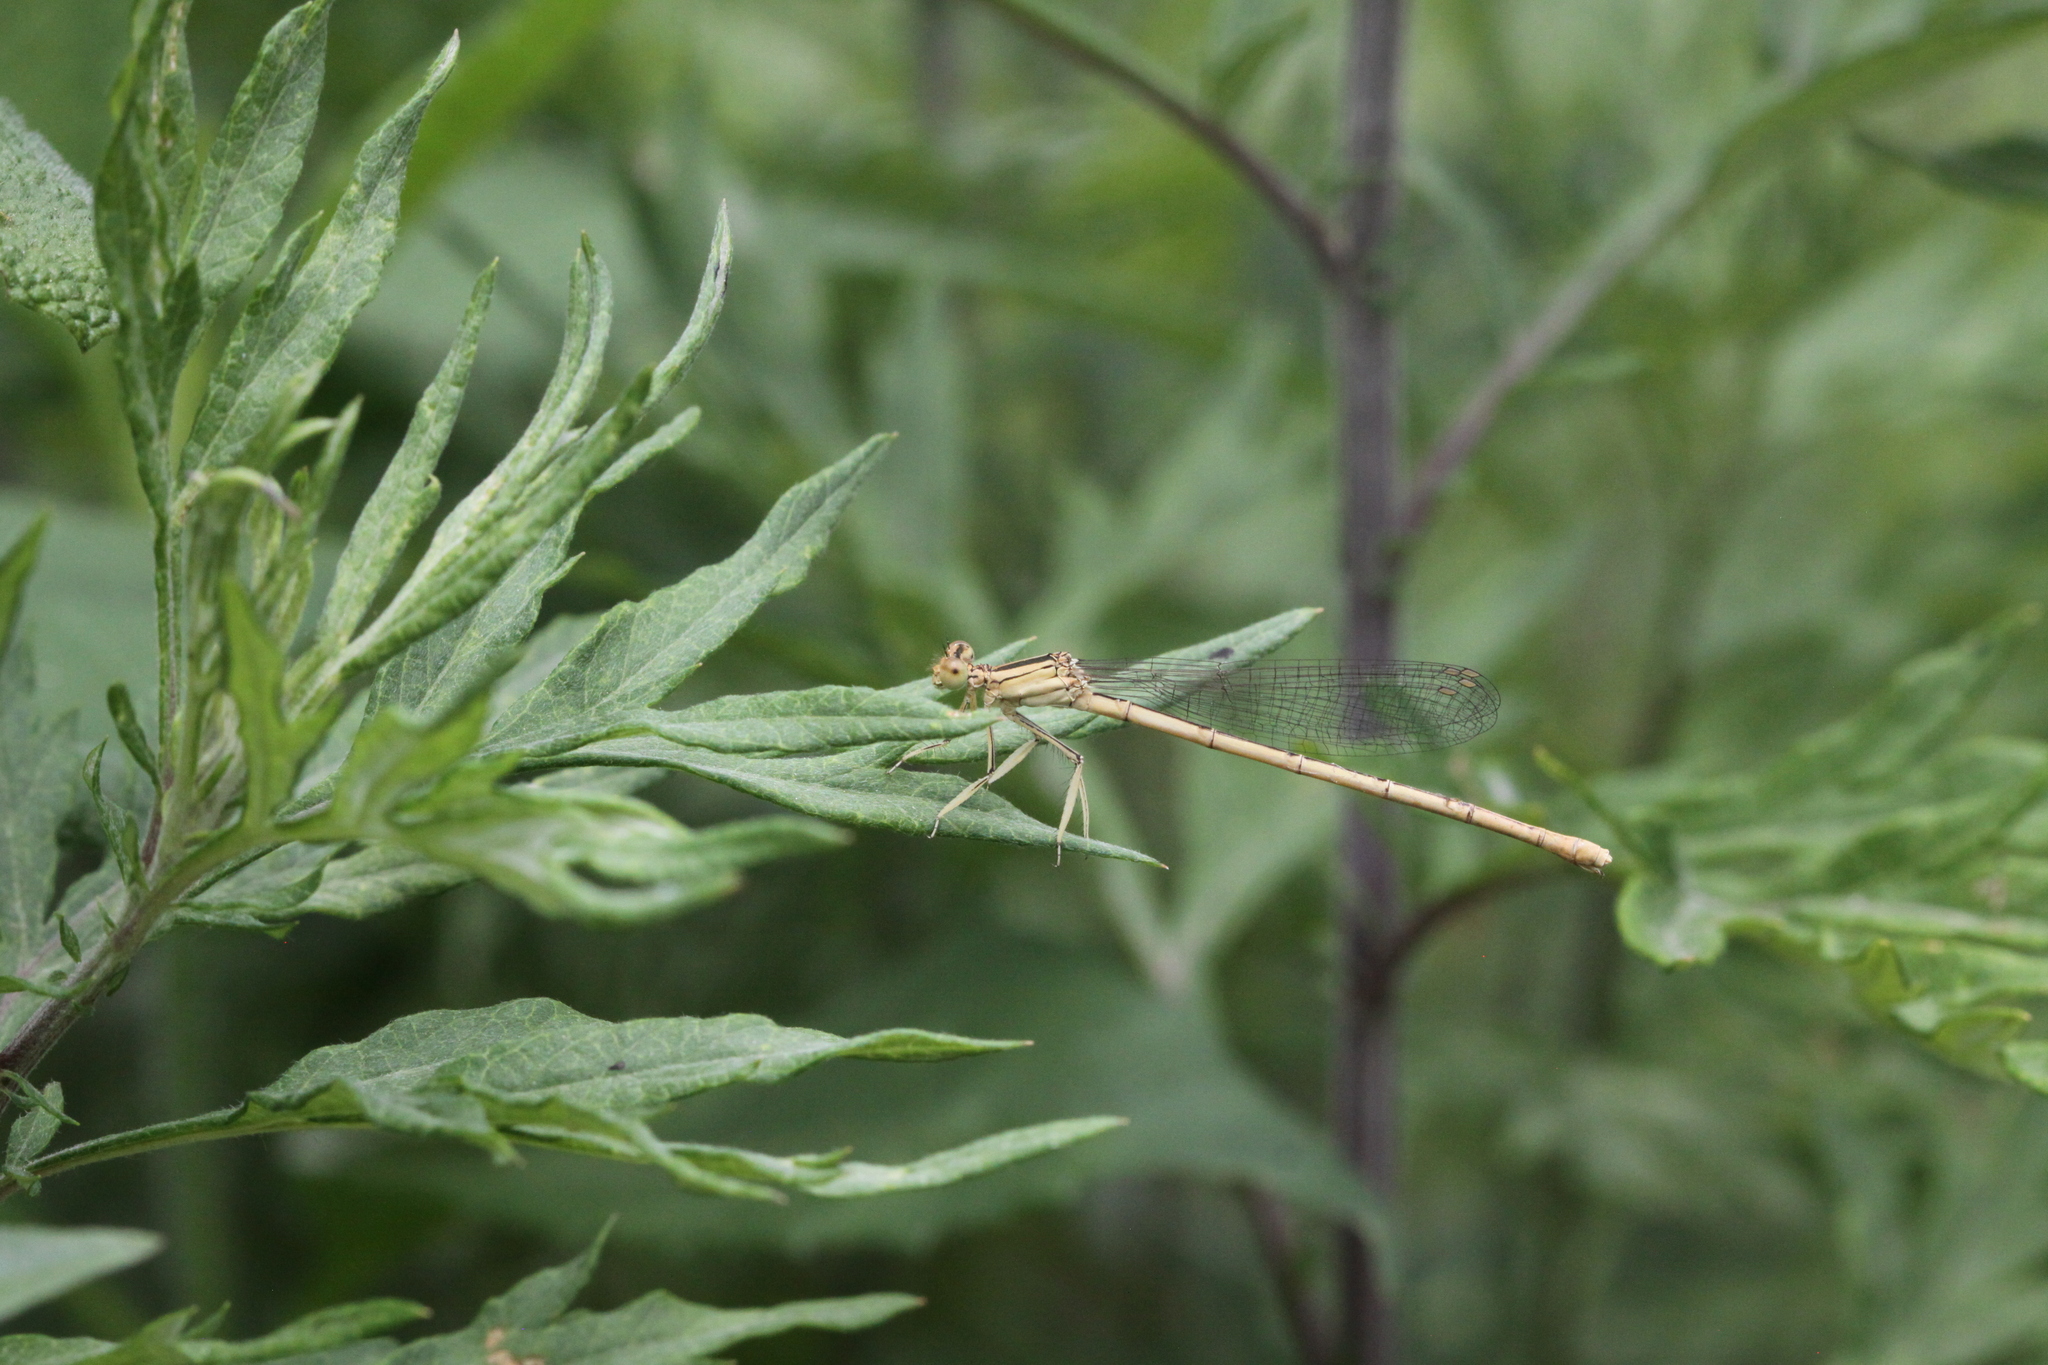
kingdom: Animalia
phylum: Arthropoda
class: Insecta
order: Odonata
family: Platycnemididae
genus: Platycnemis
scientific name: Platycnemis latipes
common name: White featherleg
